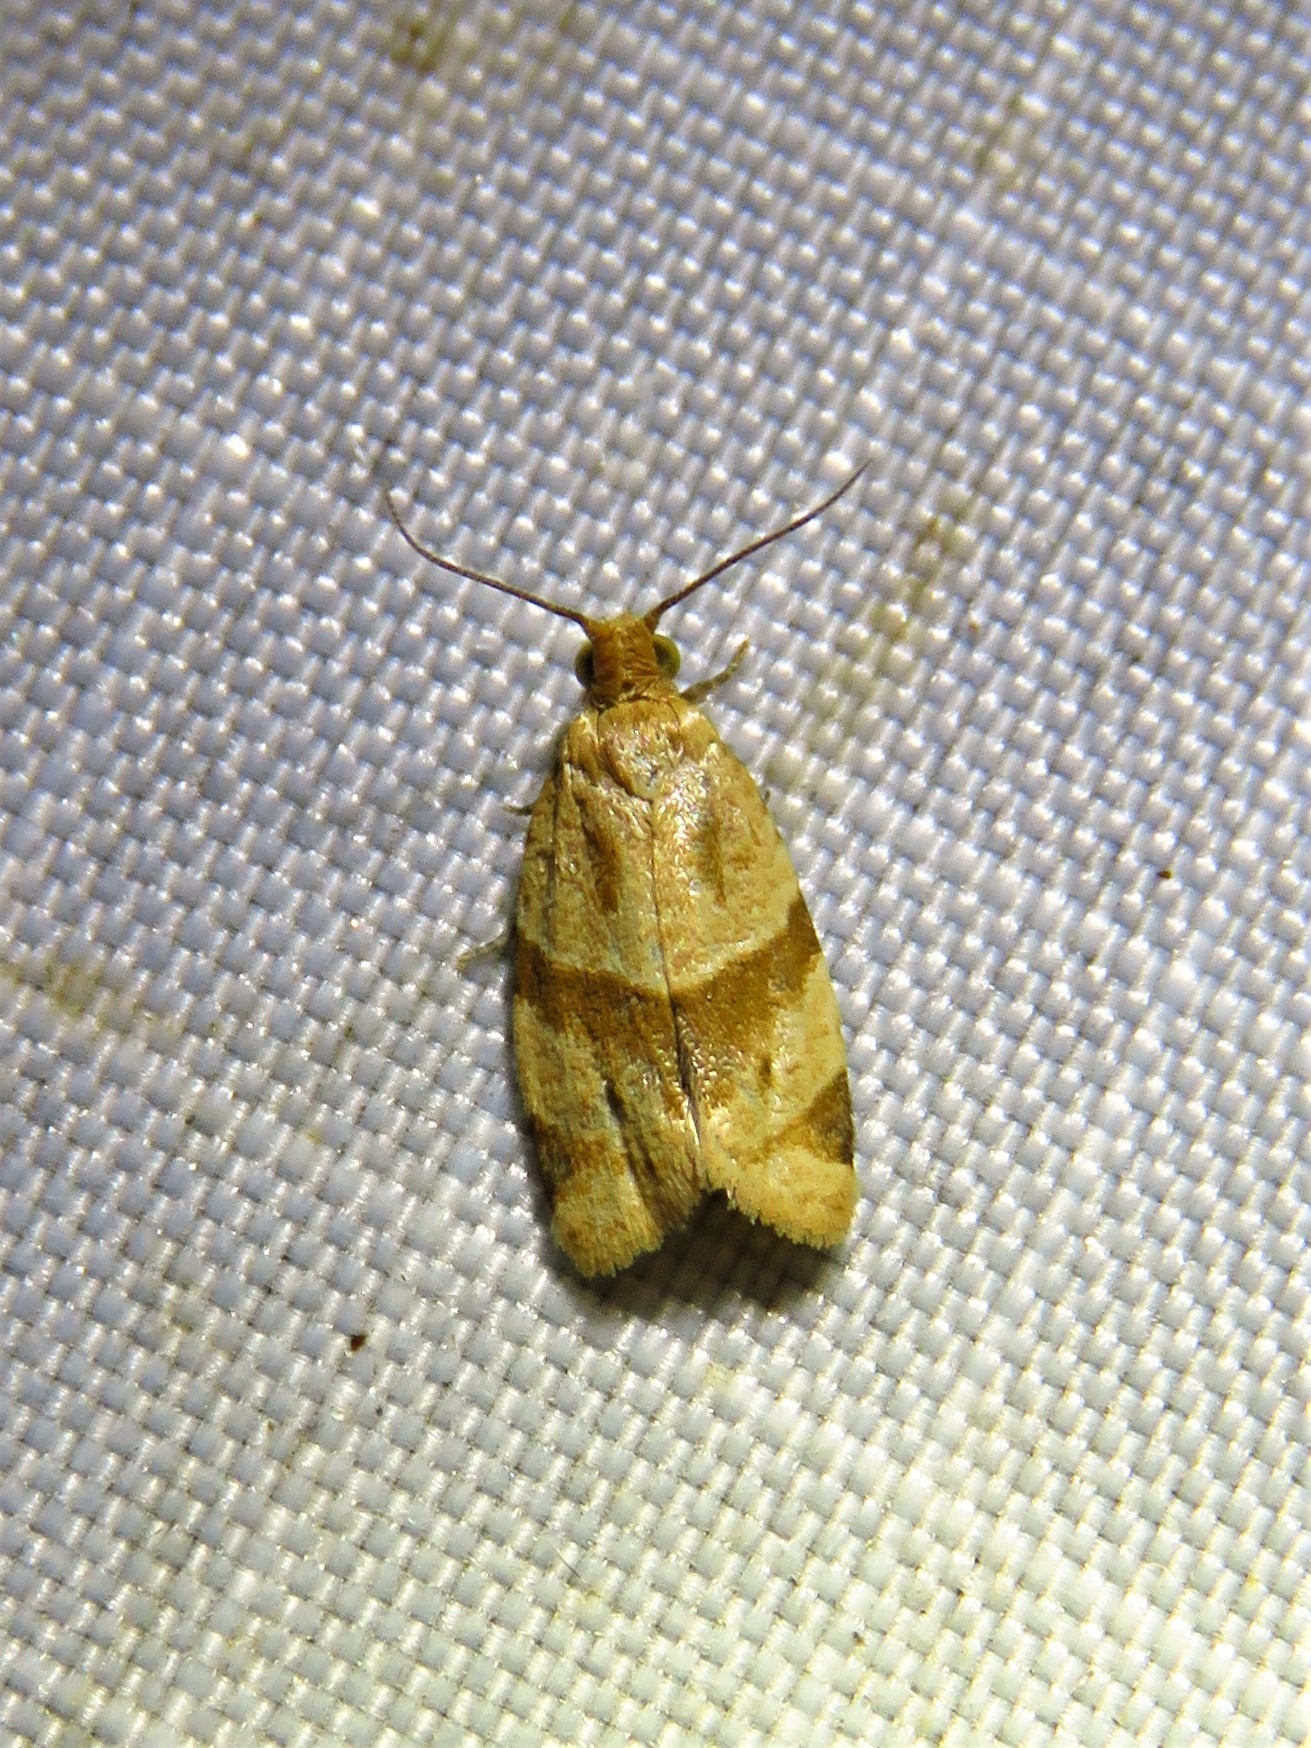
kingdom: Animalia
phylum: Arthropoda
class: Insecta
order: Lepidoptera
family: Tortricidae
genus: Clepsis
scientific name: Clepsis peritana
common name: Garden tortrix
